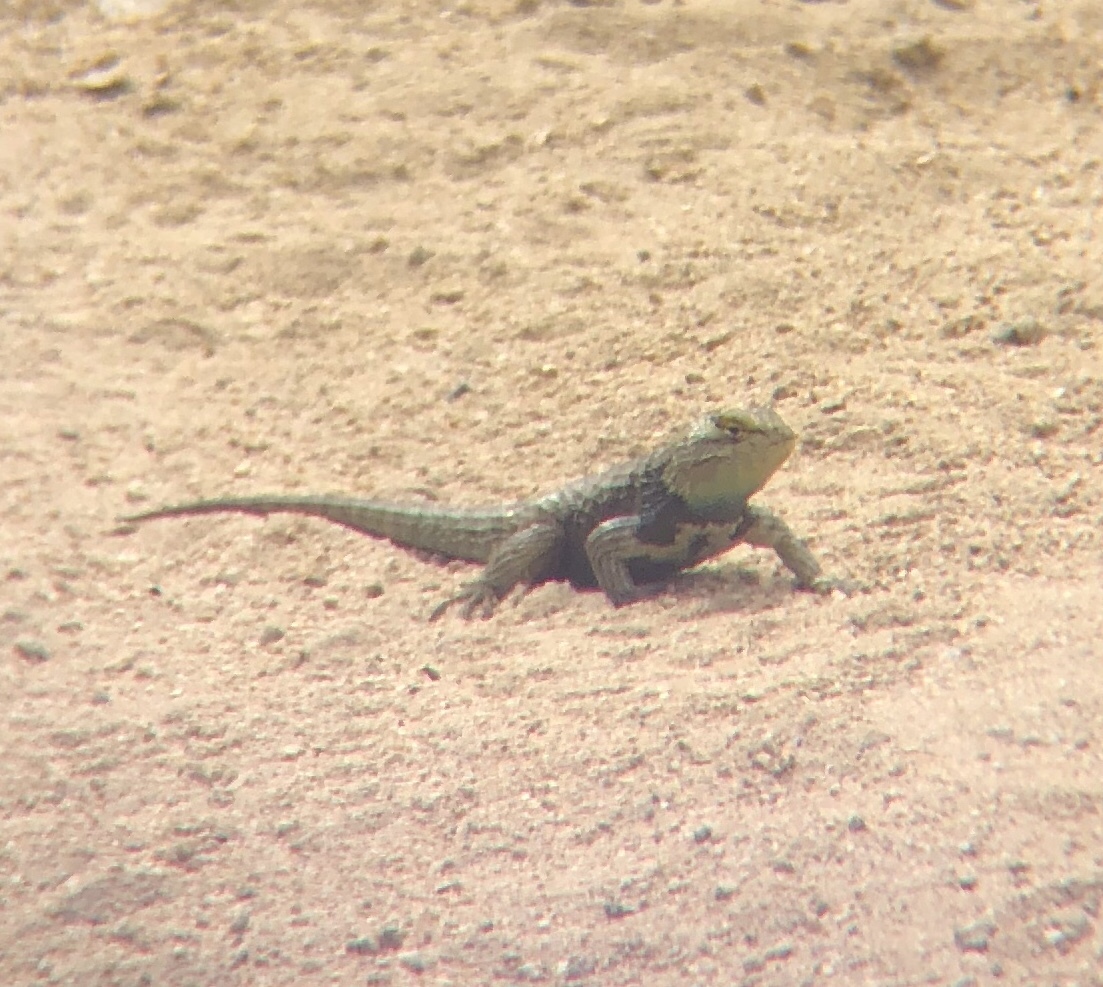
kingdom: Animalia
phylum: Chordata
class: Squamata
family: Phrynosomatidae
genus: Sceloporus
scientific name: Sceloporus magister
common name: Desert spiny lizard
